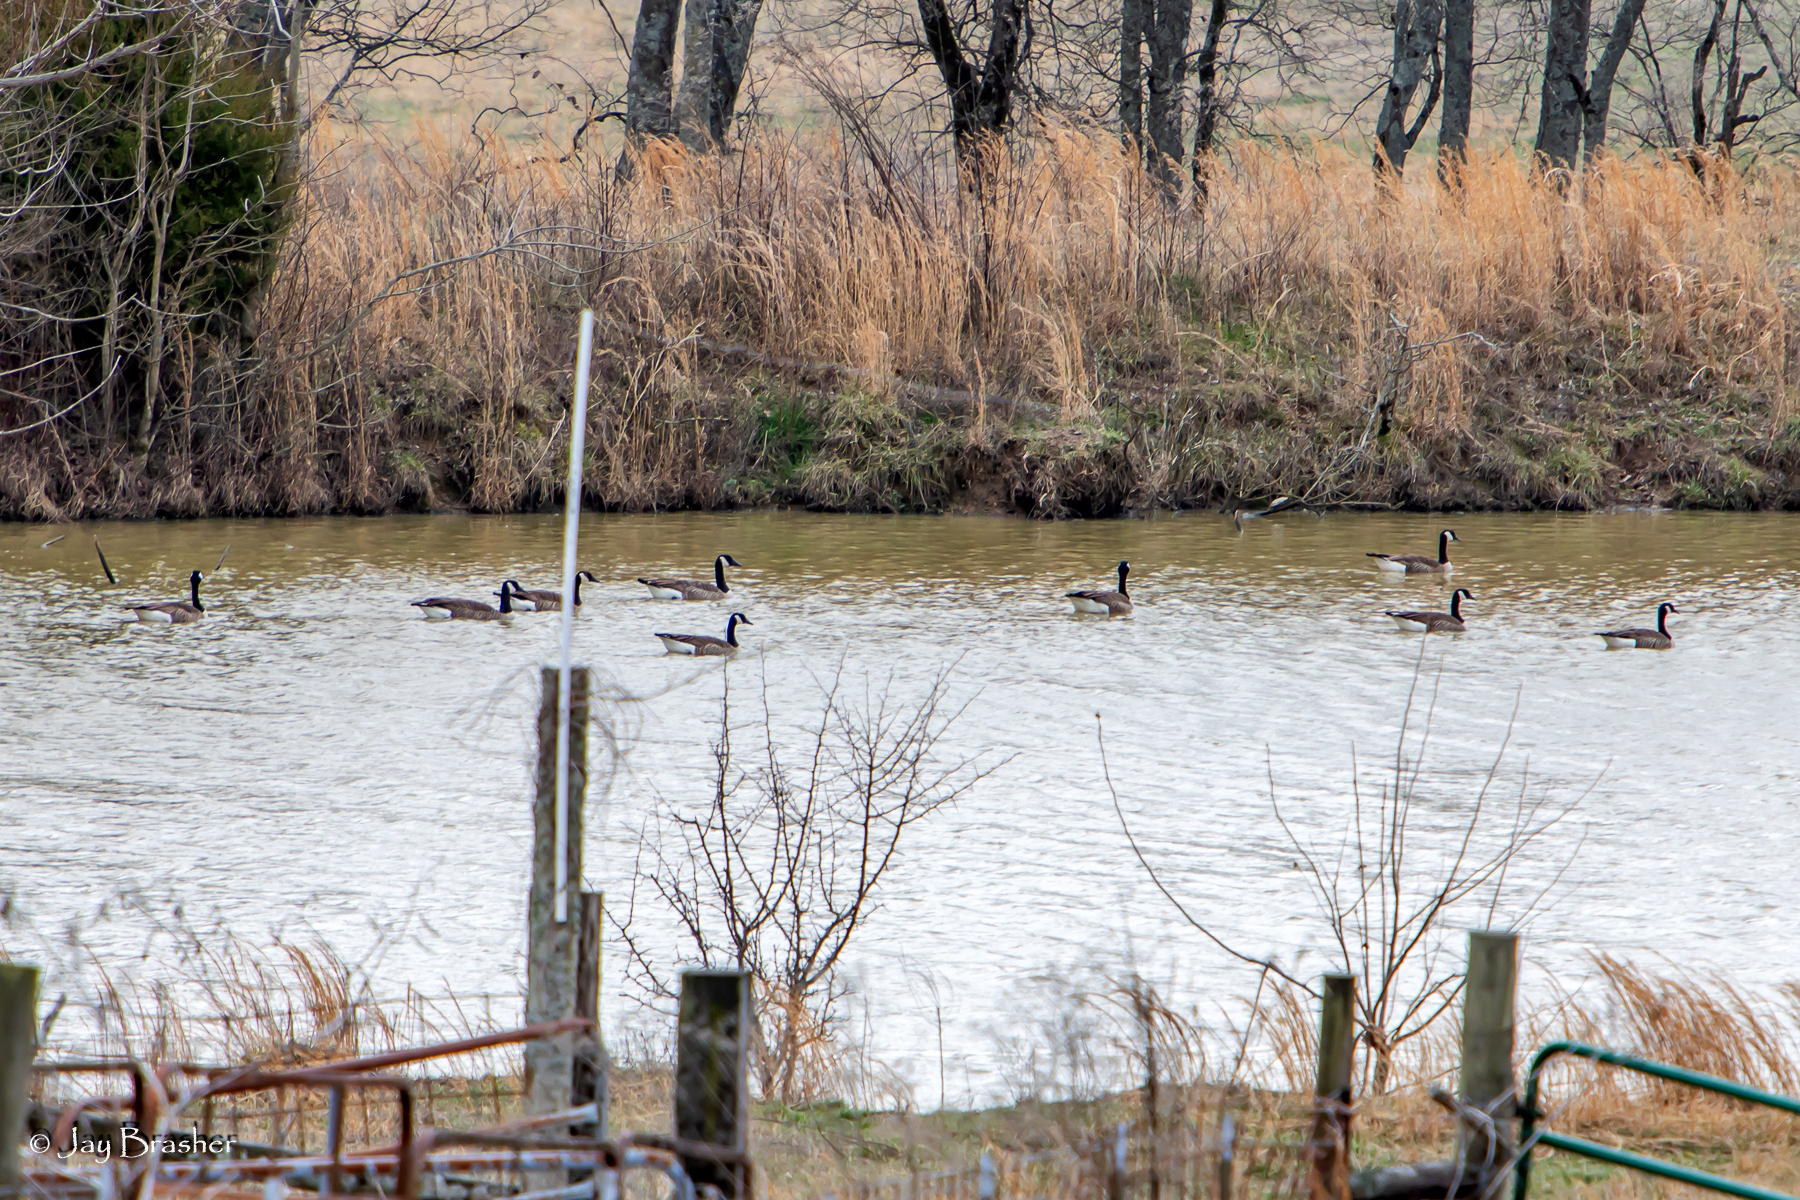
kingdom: Animalia
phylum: Chordata
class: Aves
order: Anseriformes
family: Anatidae
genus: Branta
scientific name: Branta canadensis
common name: Canada goose
